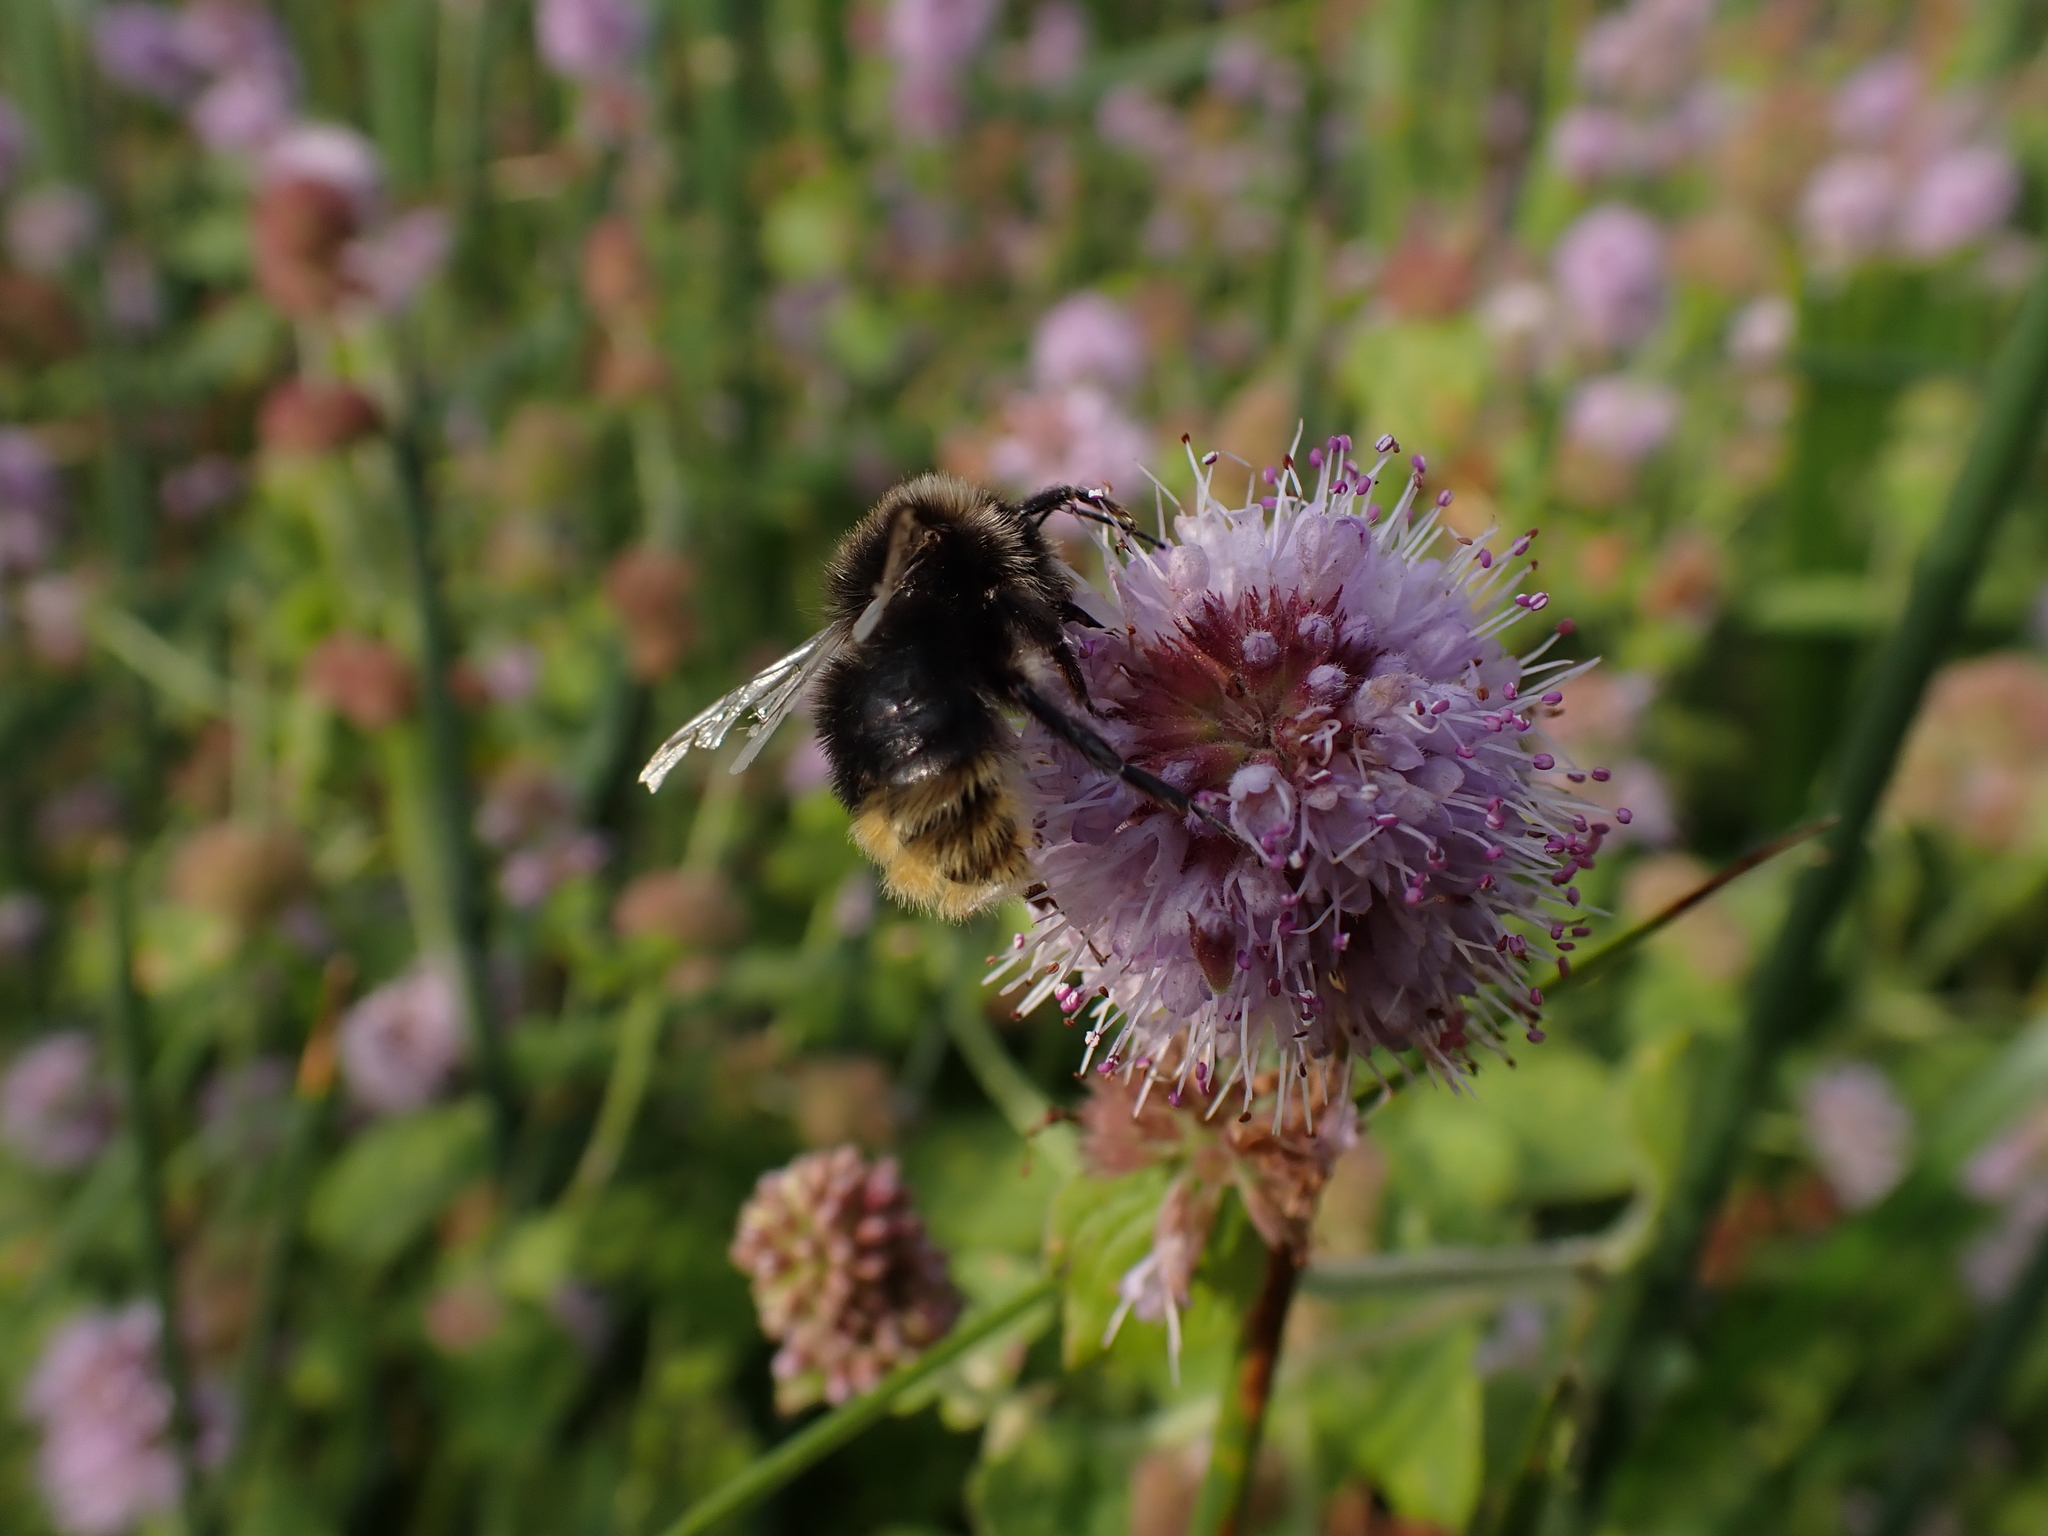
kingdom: Animalia
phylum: Arthropoda
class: Insecta
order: Hymenoptera
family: Apidae
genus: Bombus
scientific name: Bombus rupestris
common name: Hill cuckoo-bee
